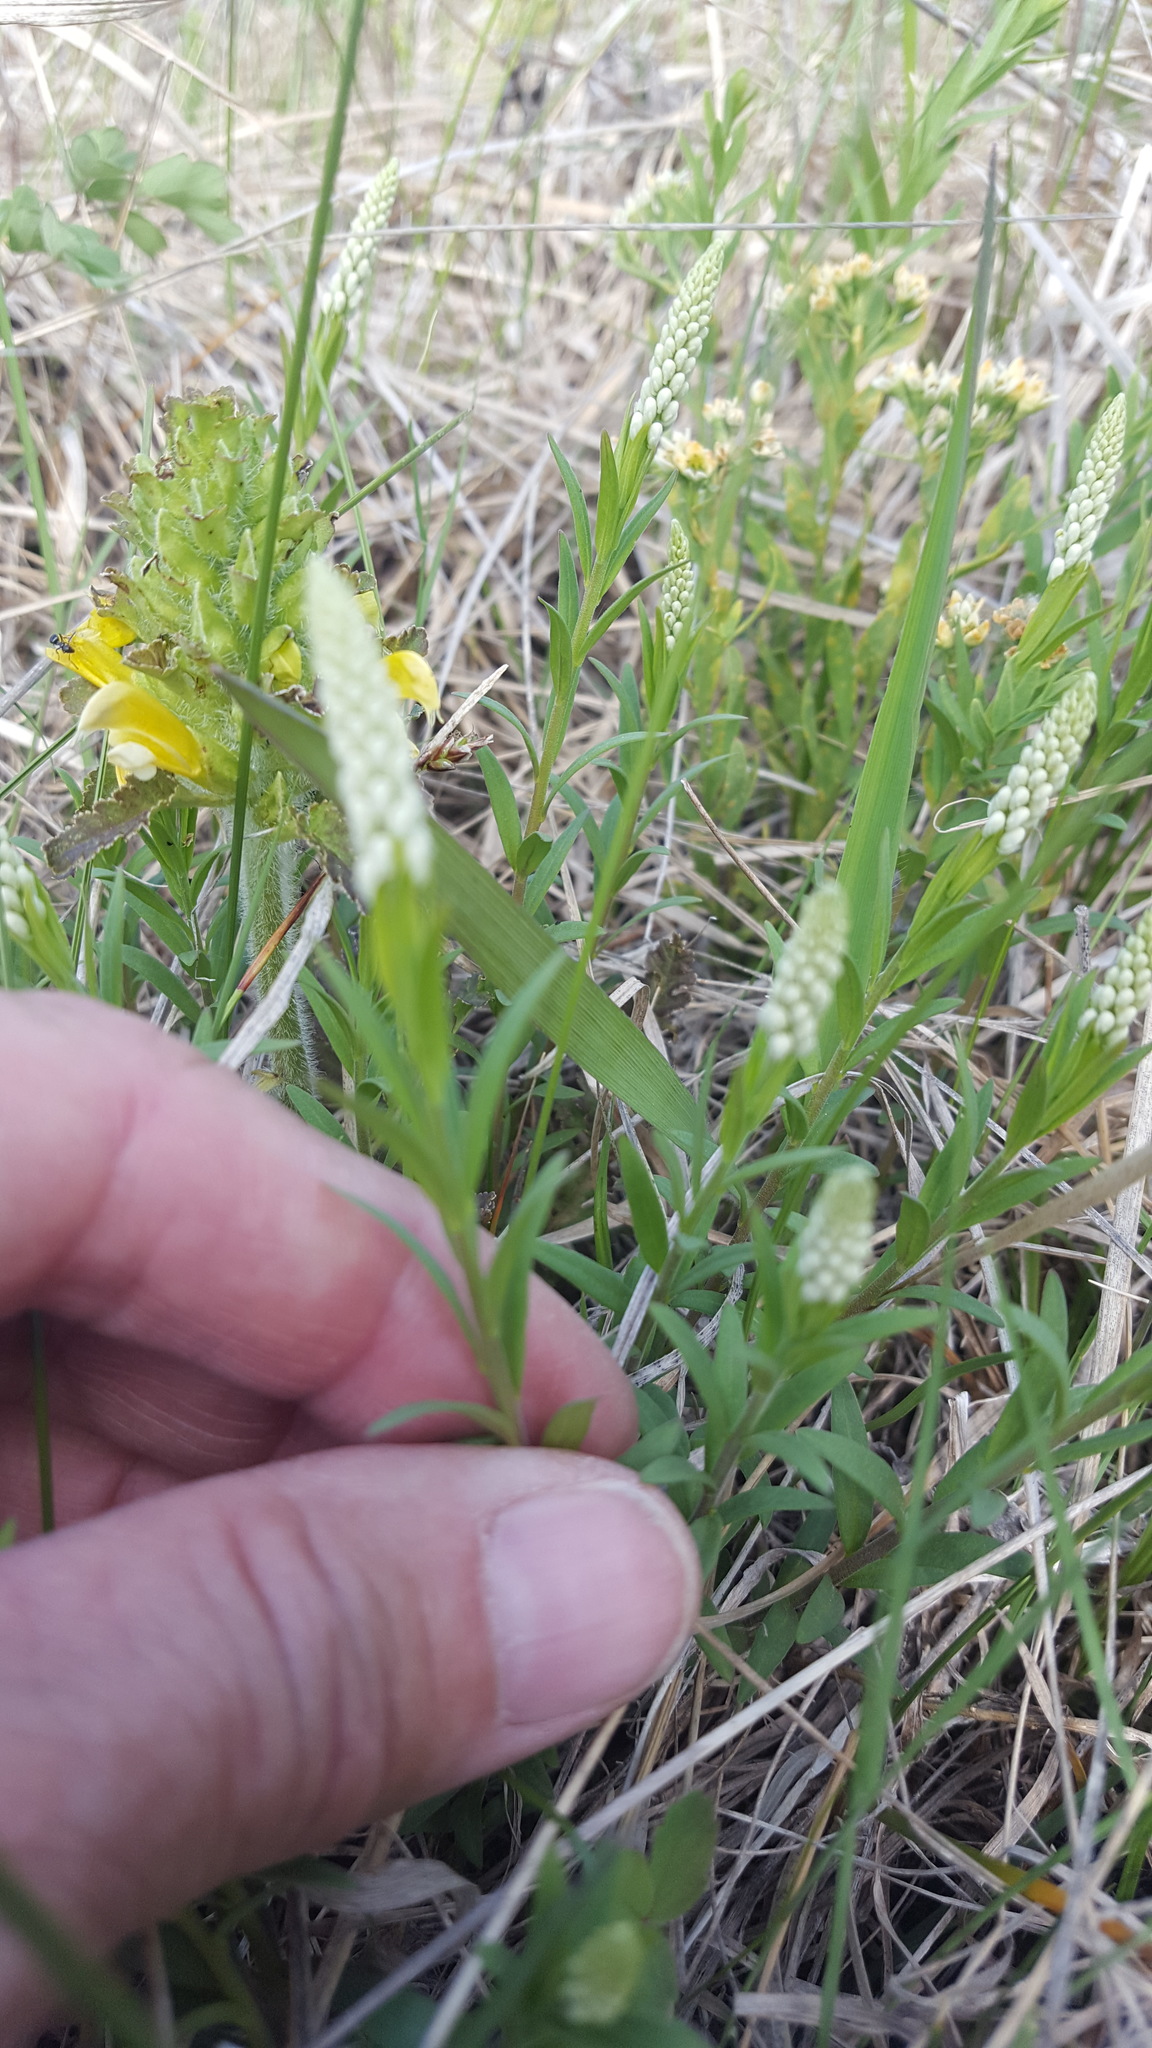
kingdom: Plantae
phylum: Tracheophyta
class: Magnoliopsida
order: Fabales
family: Polygalaceae
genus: Polygala
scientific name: Polygala senega
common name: Seneca snakeroot
